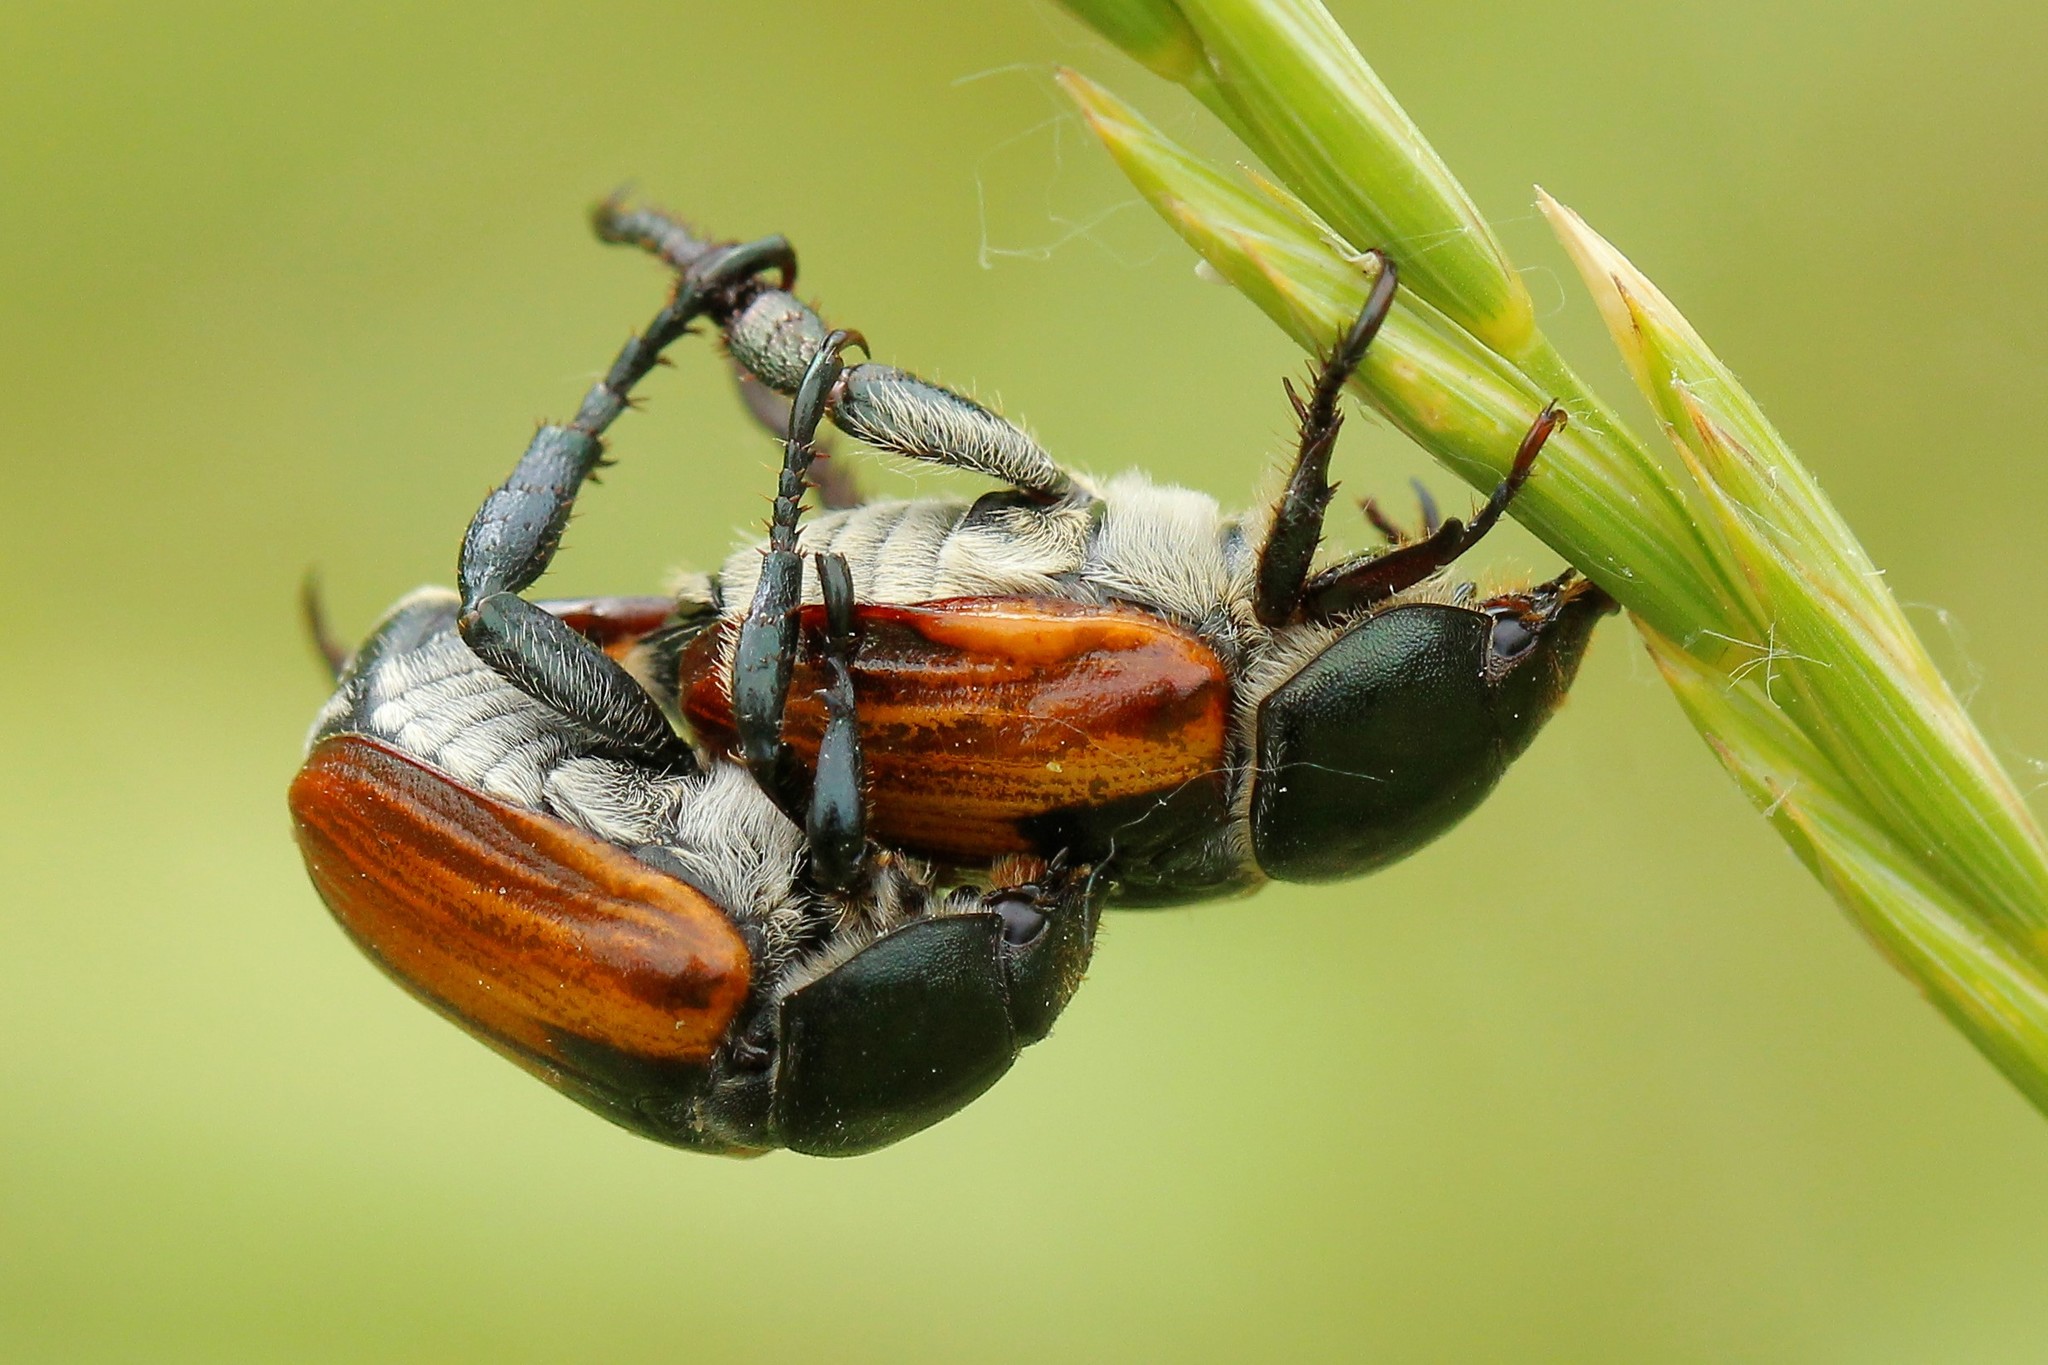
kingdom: Animalia
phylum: Arthropoda
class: Insecta
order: Coleoptera
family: Scarabaeidae
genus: Anisoplia
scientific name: Anisoplia austriaca
